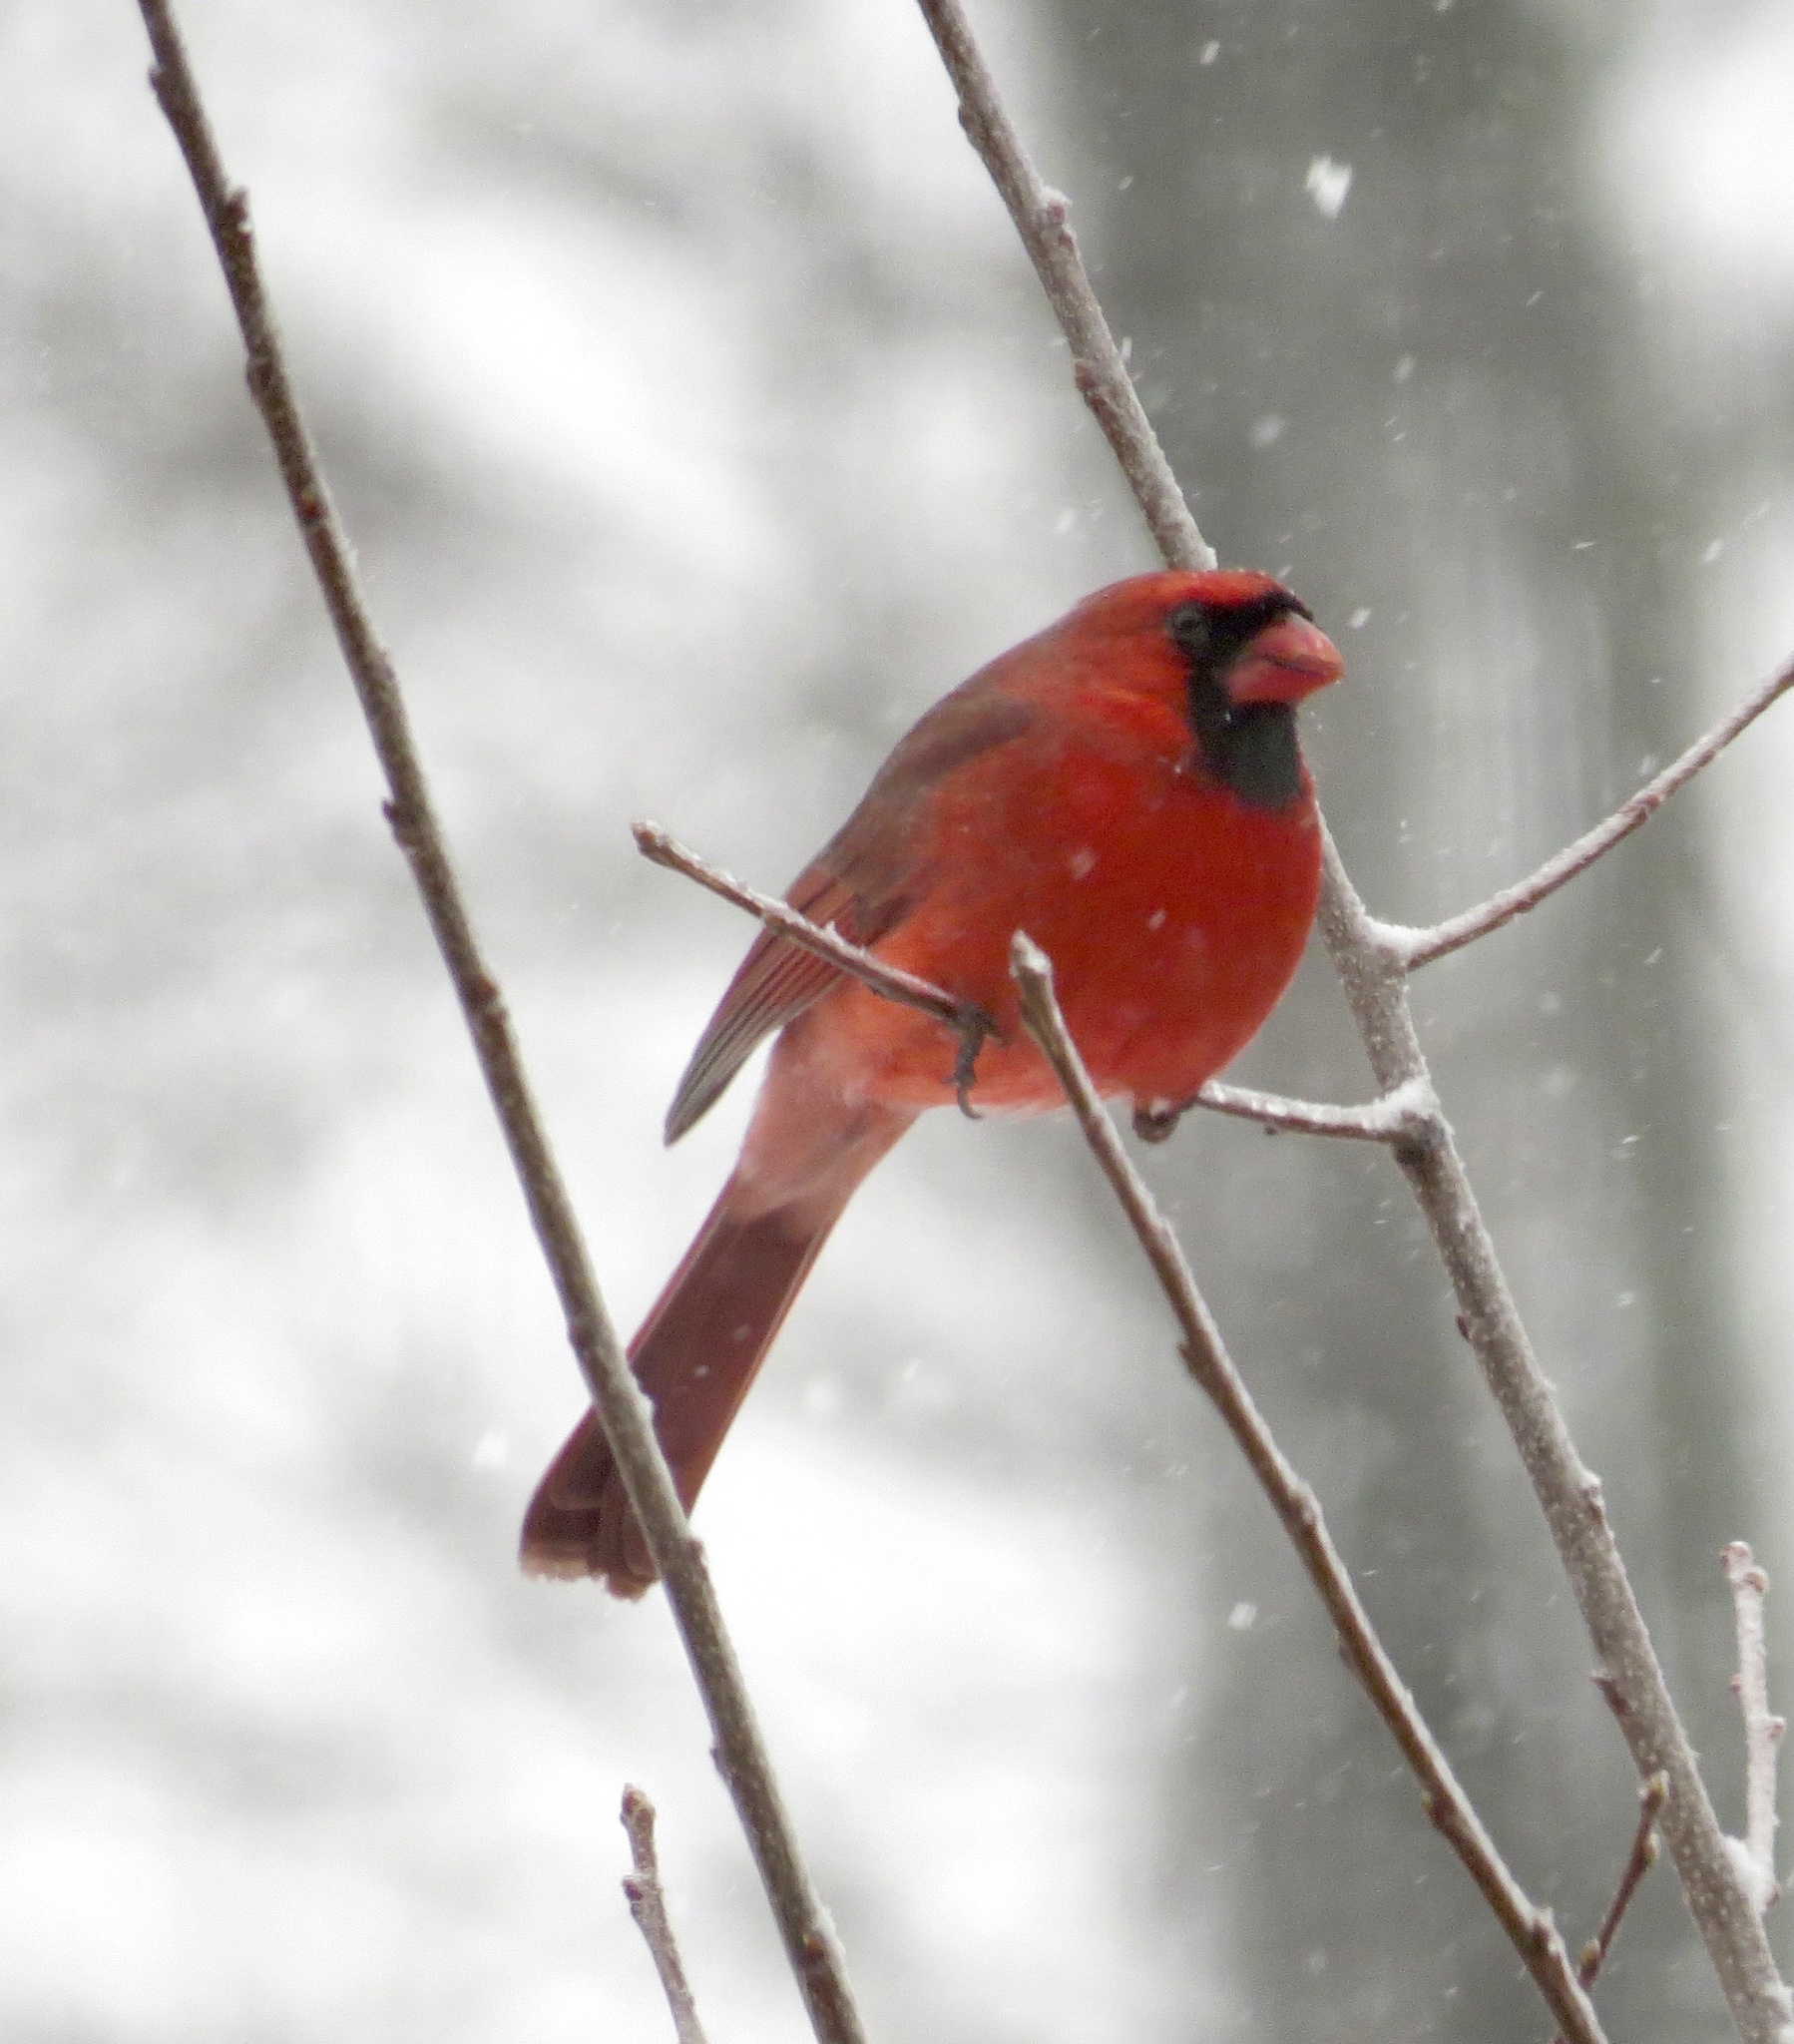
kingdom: Animalia
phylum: Chordata
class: Aves
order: Passeriformes
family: Cardinalidae
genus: Cardinalis
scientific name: Cardinalis cardinalis
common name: Northern cardinal
